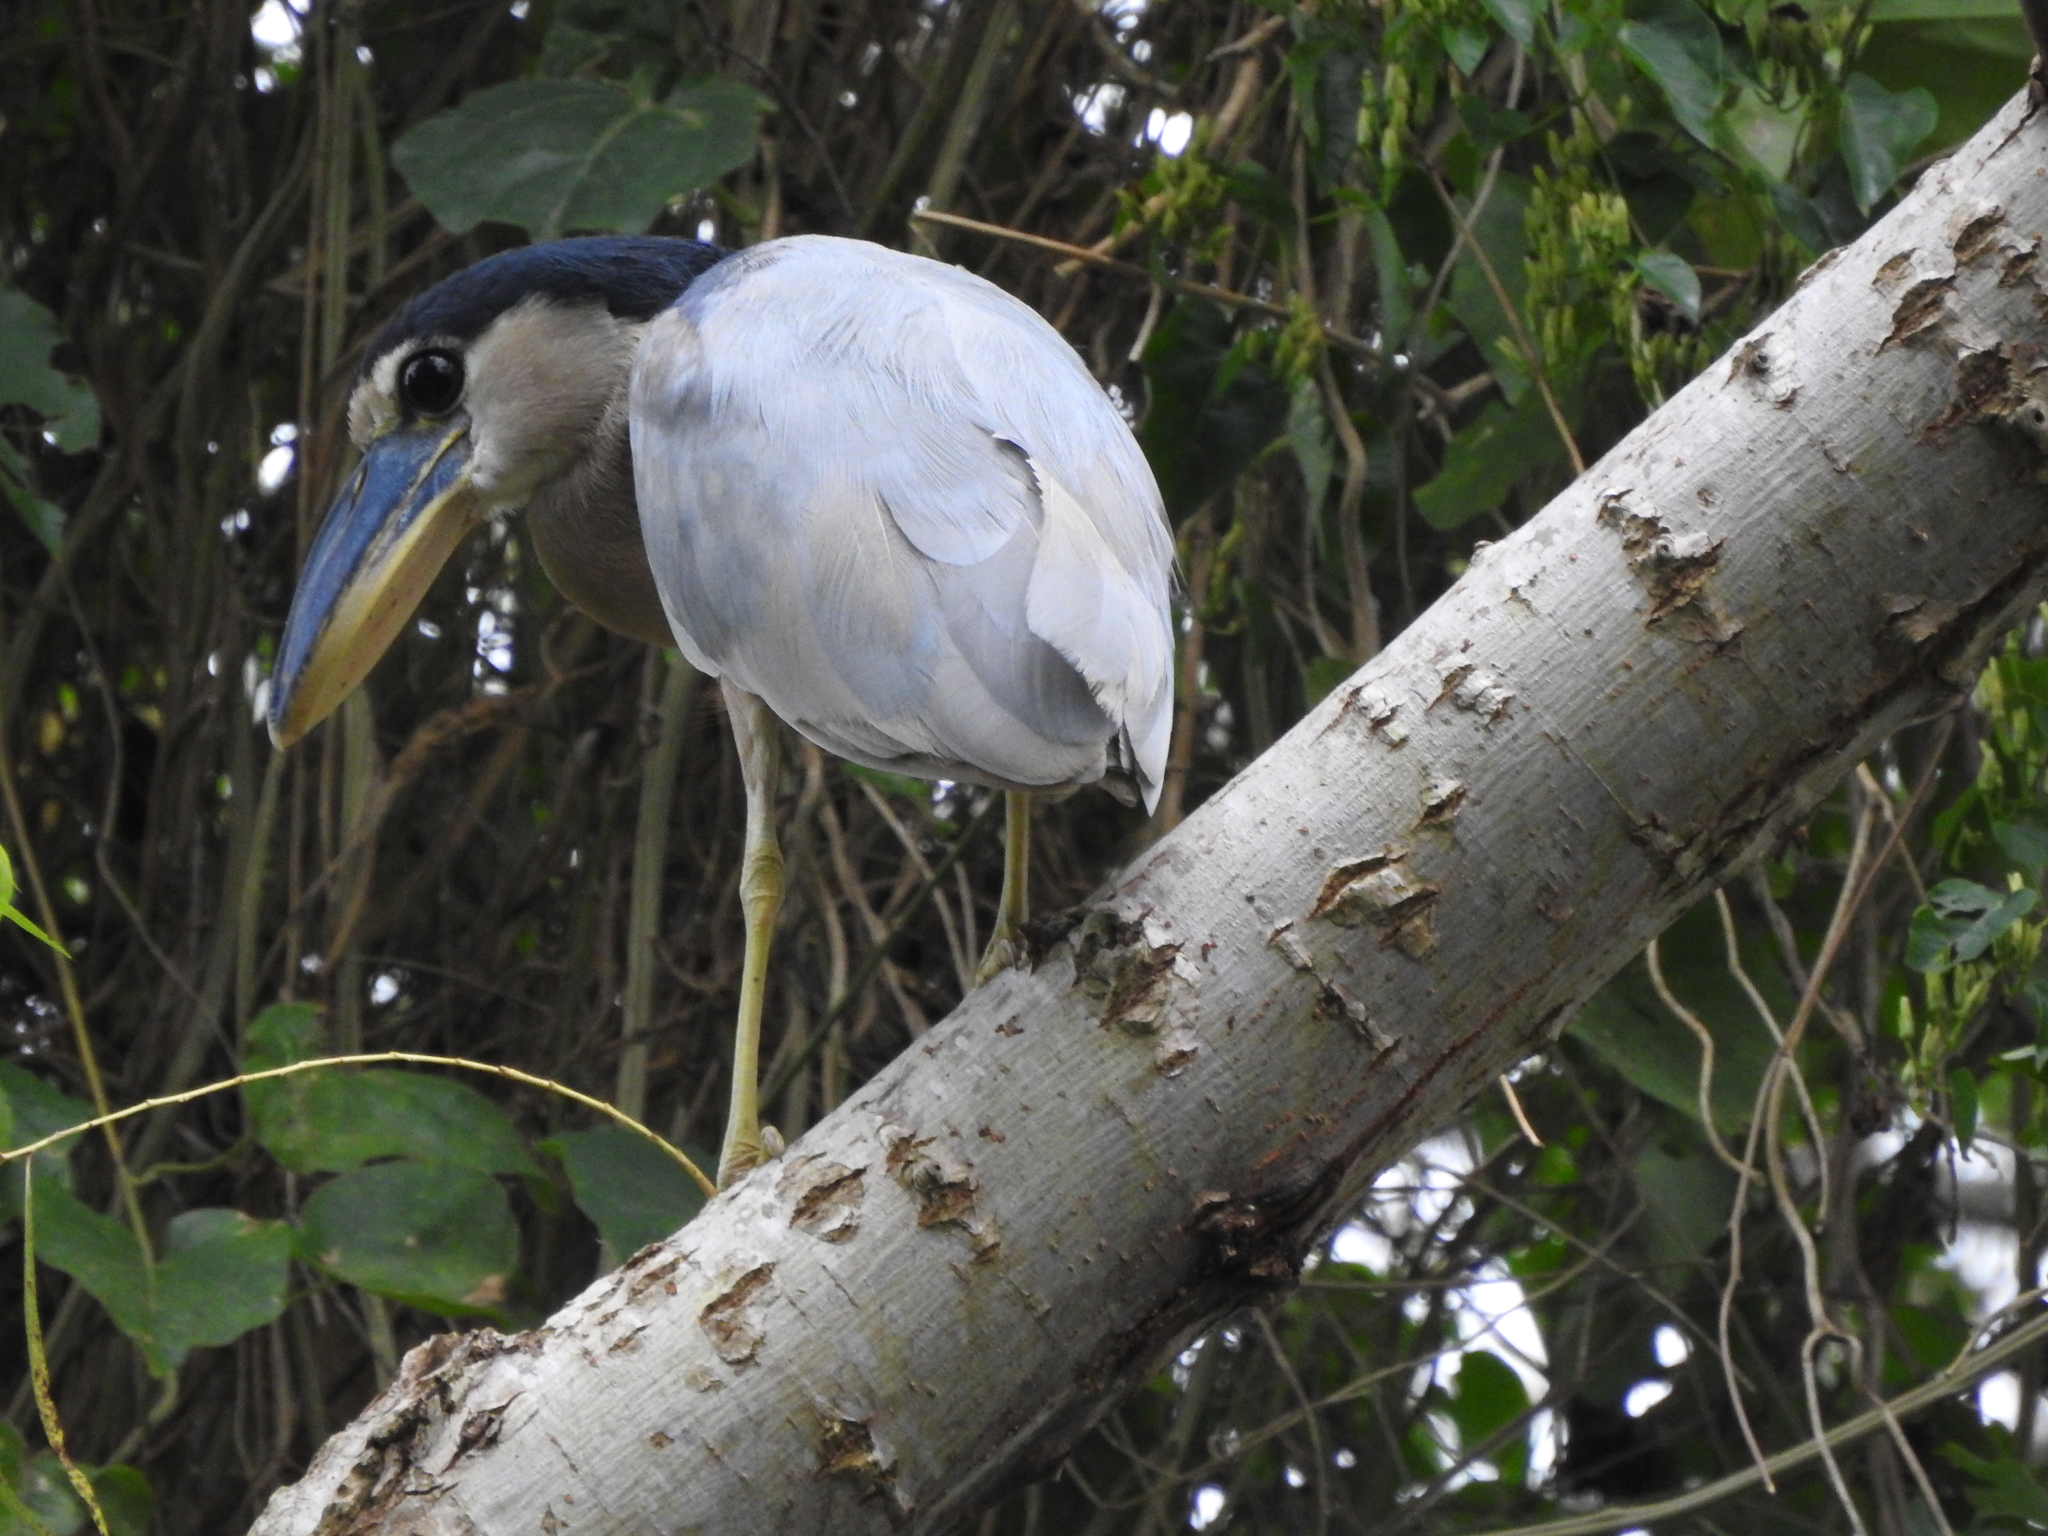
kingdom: Animalia
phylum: Chordata
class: Aves
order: Pelecaniformes
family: Ardeidae
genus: Cochlearius
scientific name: Cochlearius cochlearius
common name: Boat-billed heron
